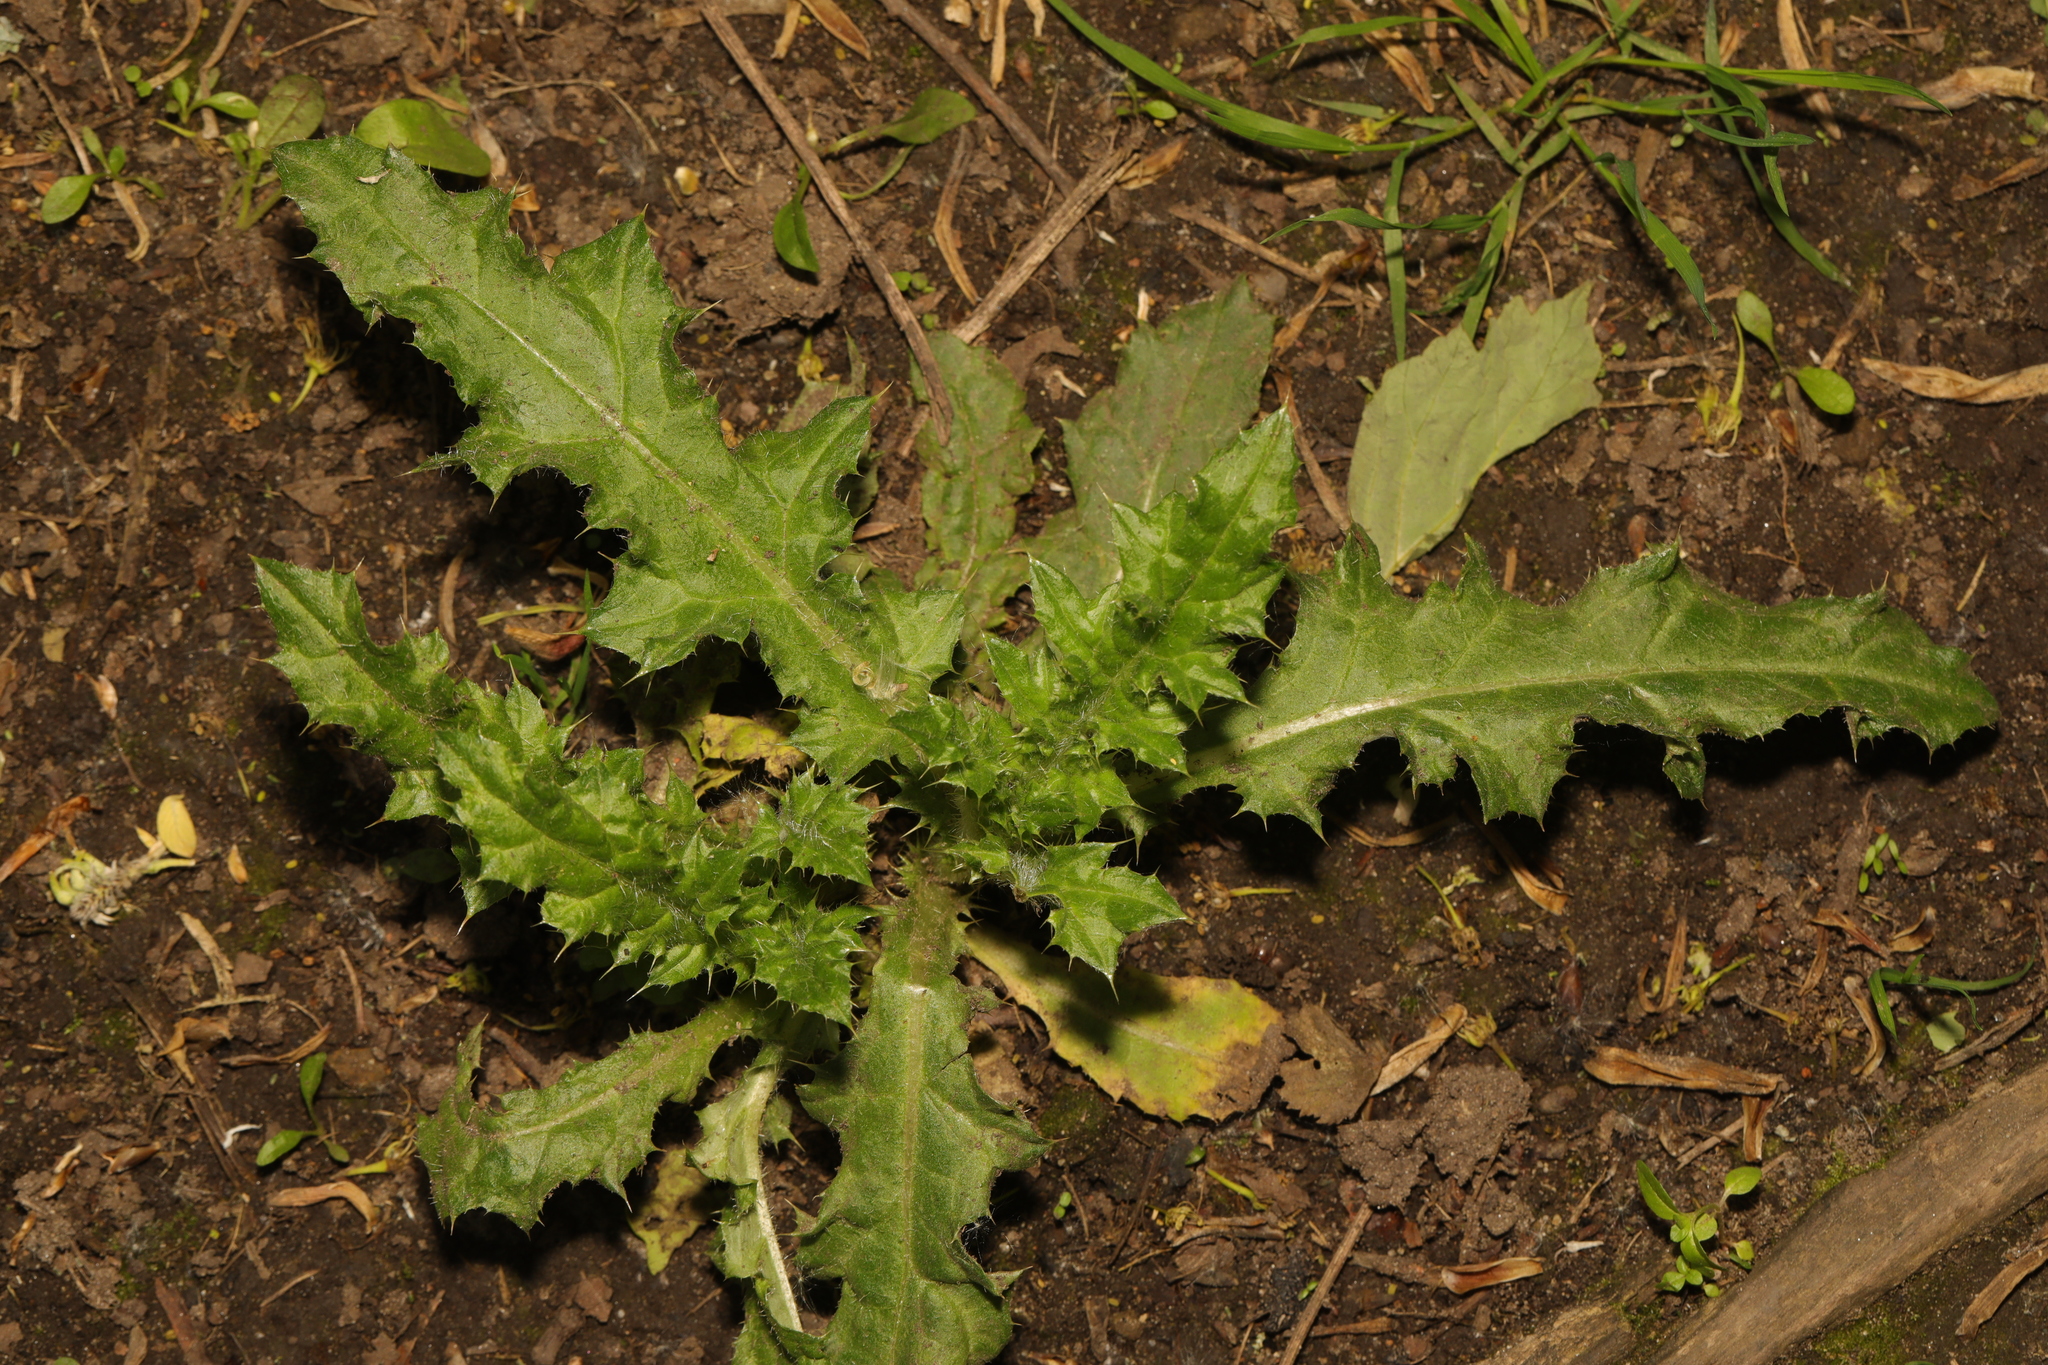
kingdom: Plantae
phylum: Tracheophyta
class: Magnoliopsida
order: Asterales
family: Asteraceae
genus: Cirsium
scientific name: Cirsium arvense
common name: Creeping thistle
